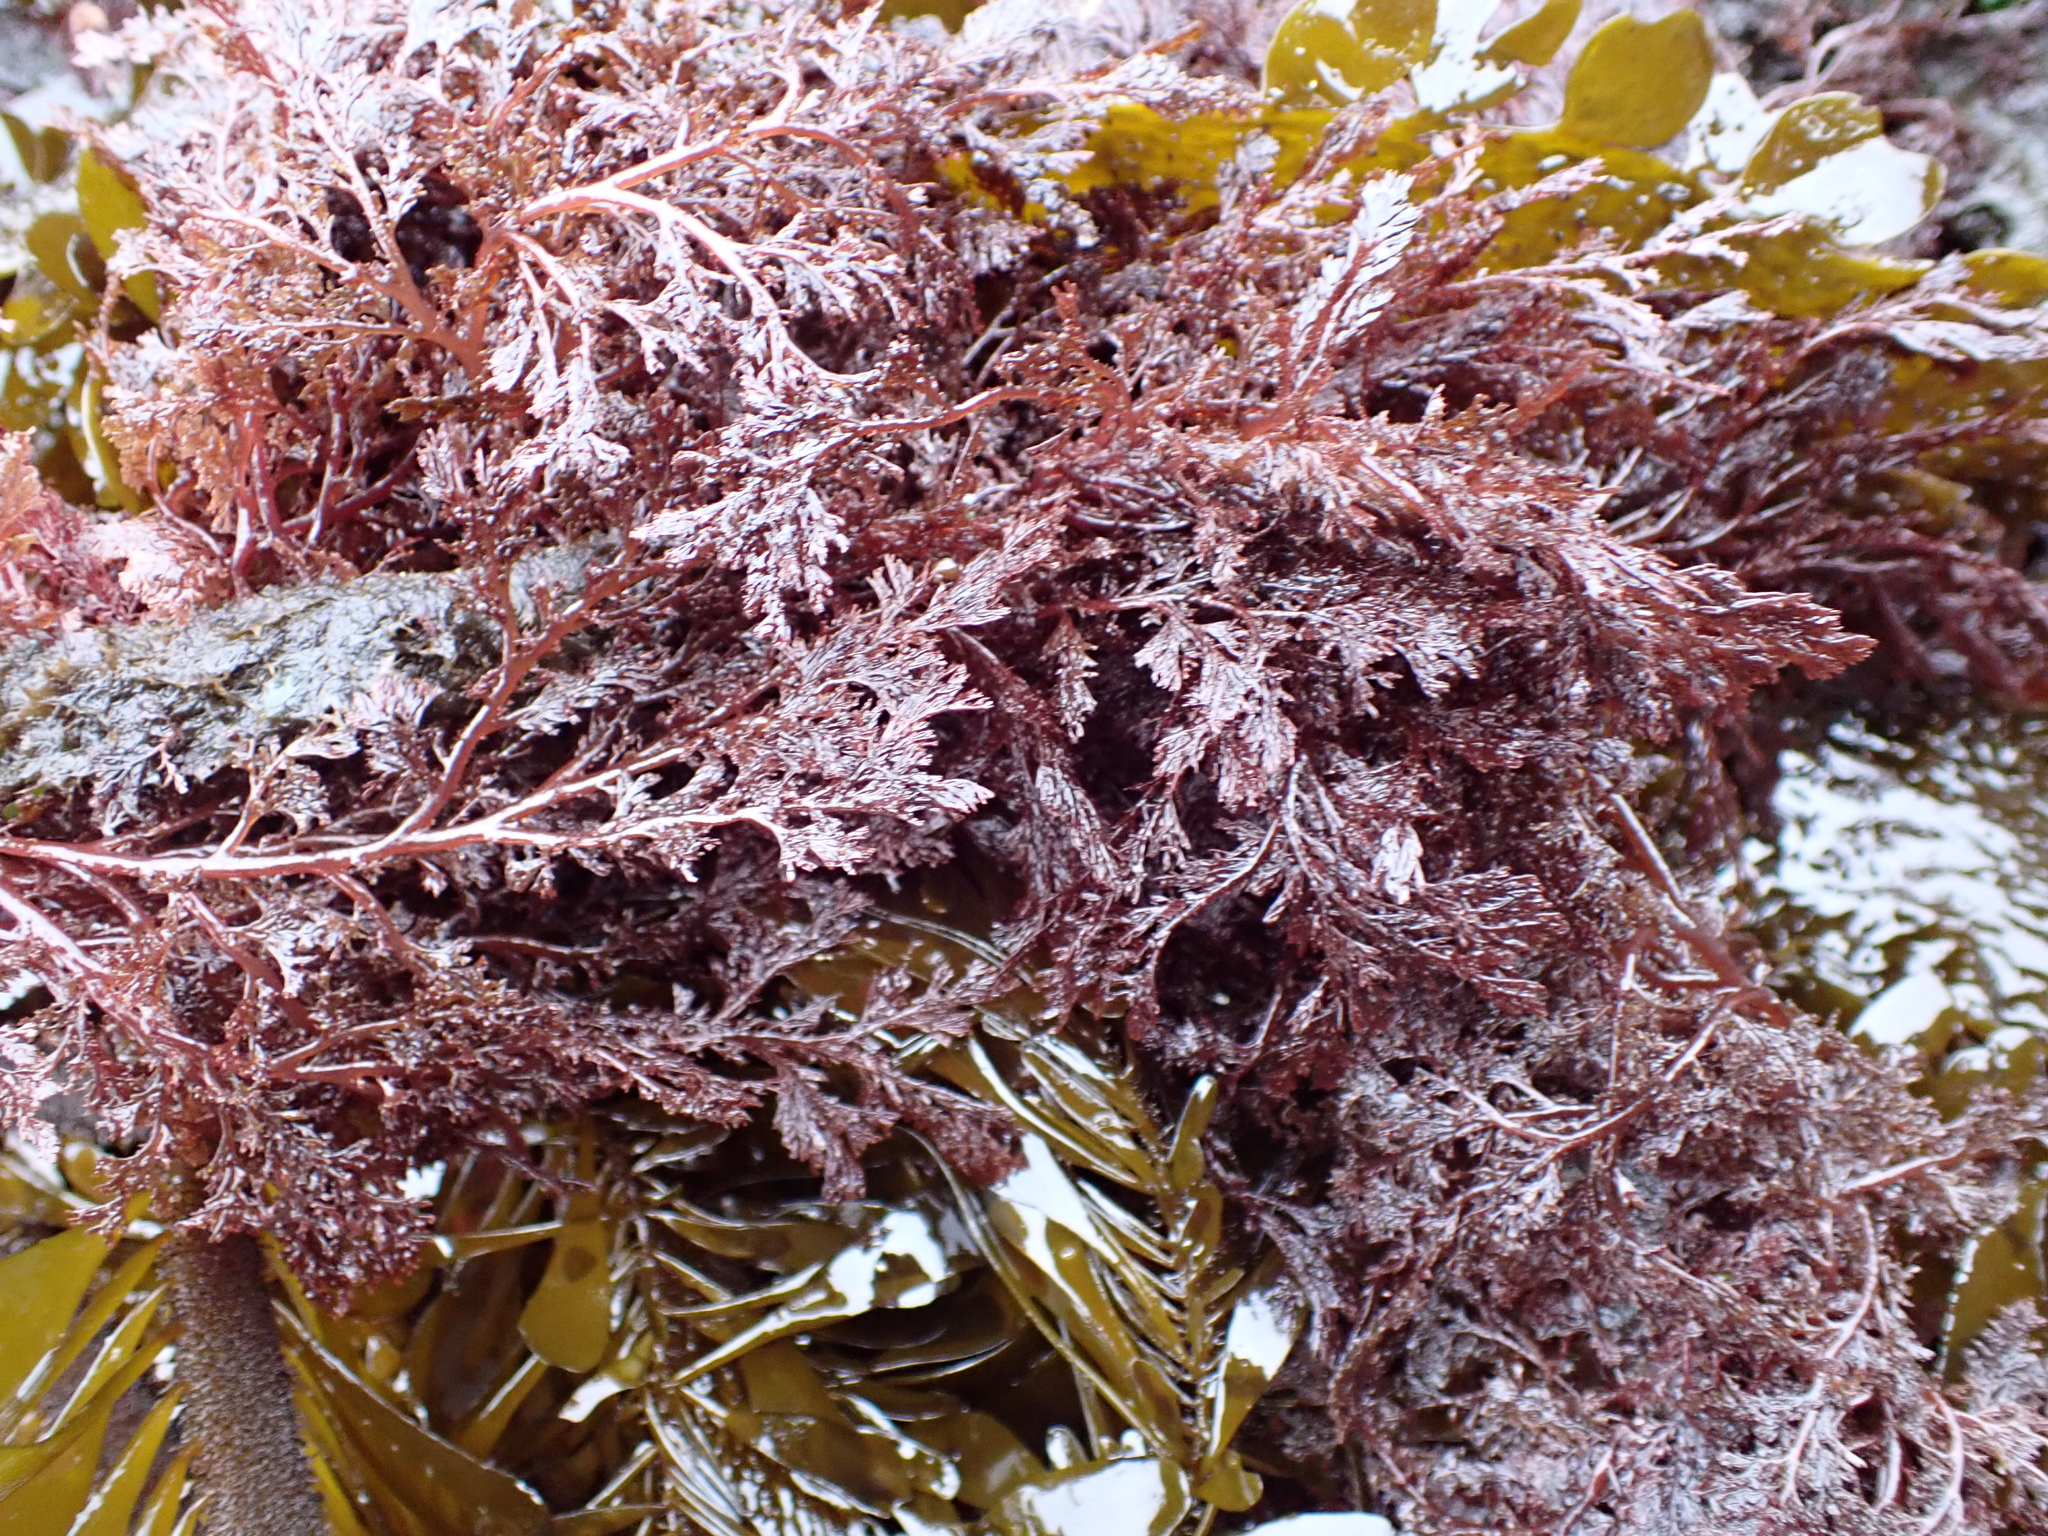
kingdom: Plantae
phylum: Rhodophyta
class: Florideophyceae
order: Ceramiales
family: Ceramiaceae
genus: Microcladia
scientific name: Microcladia coulteri
